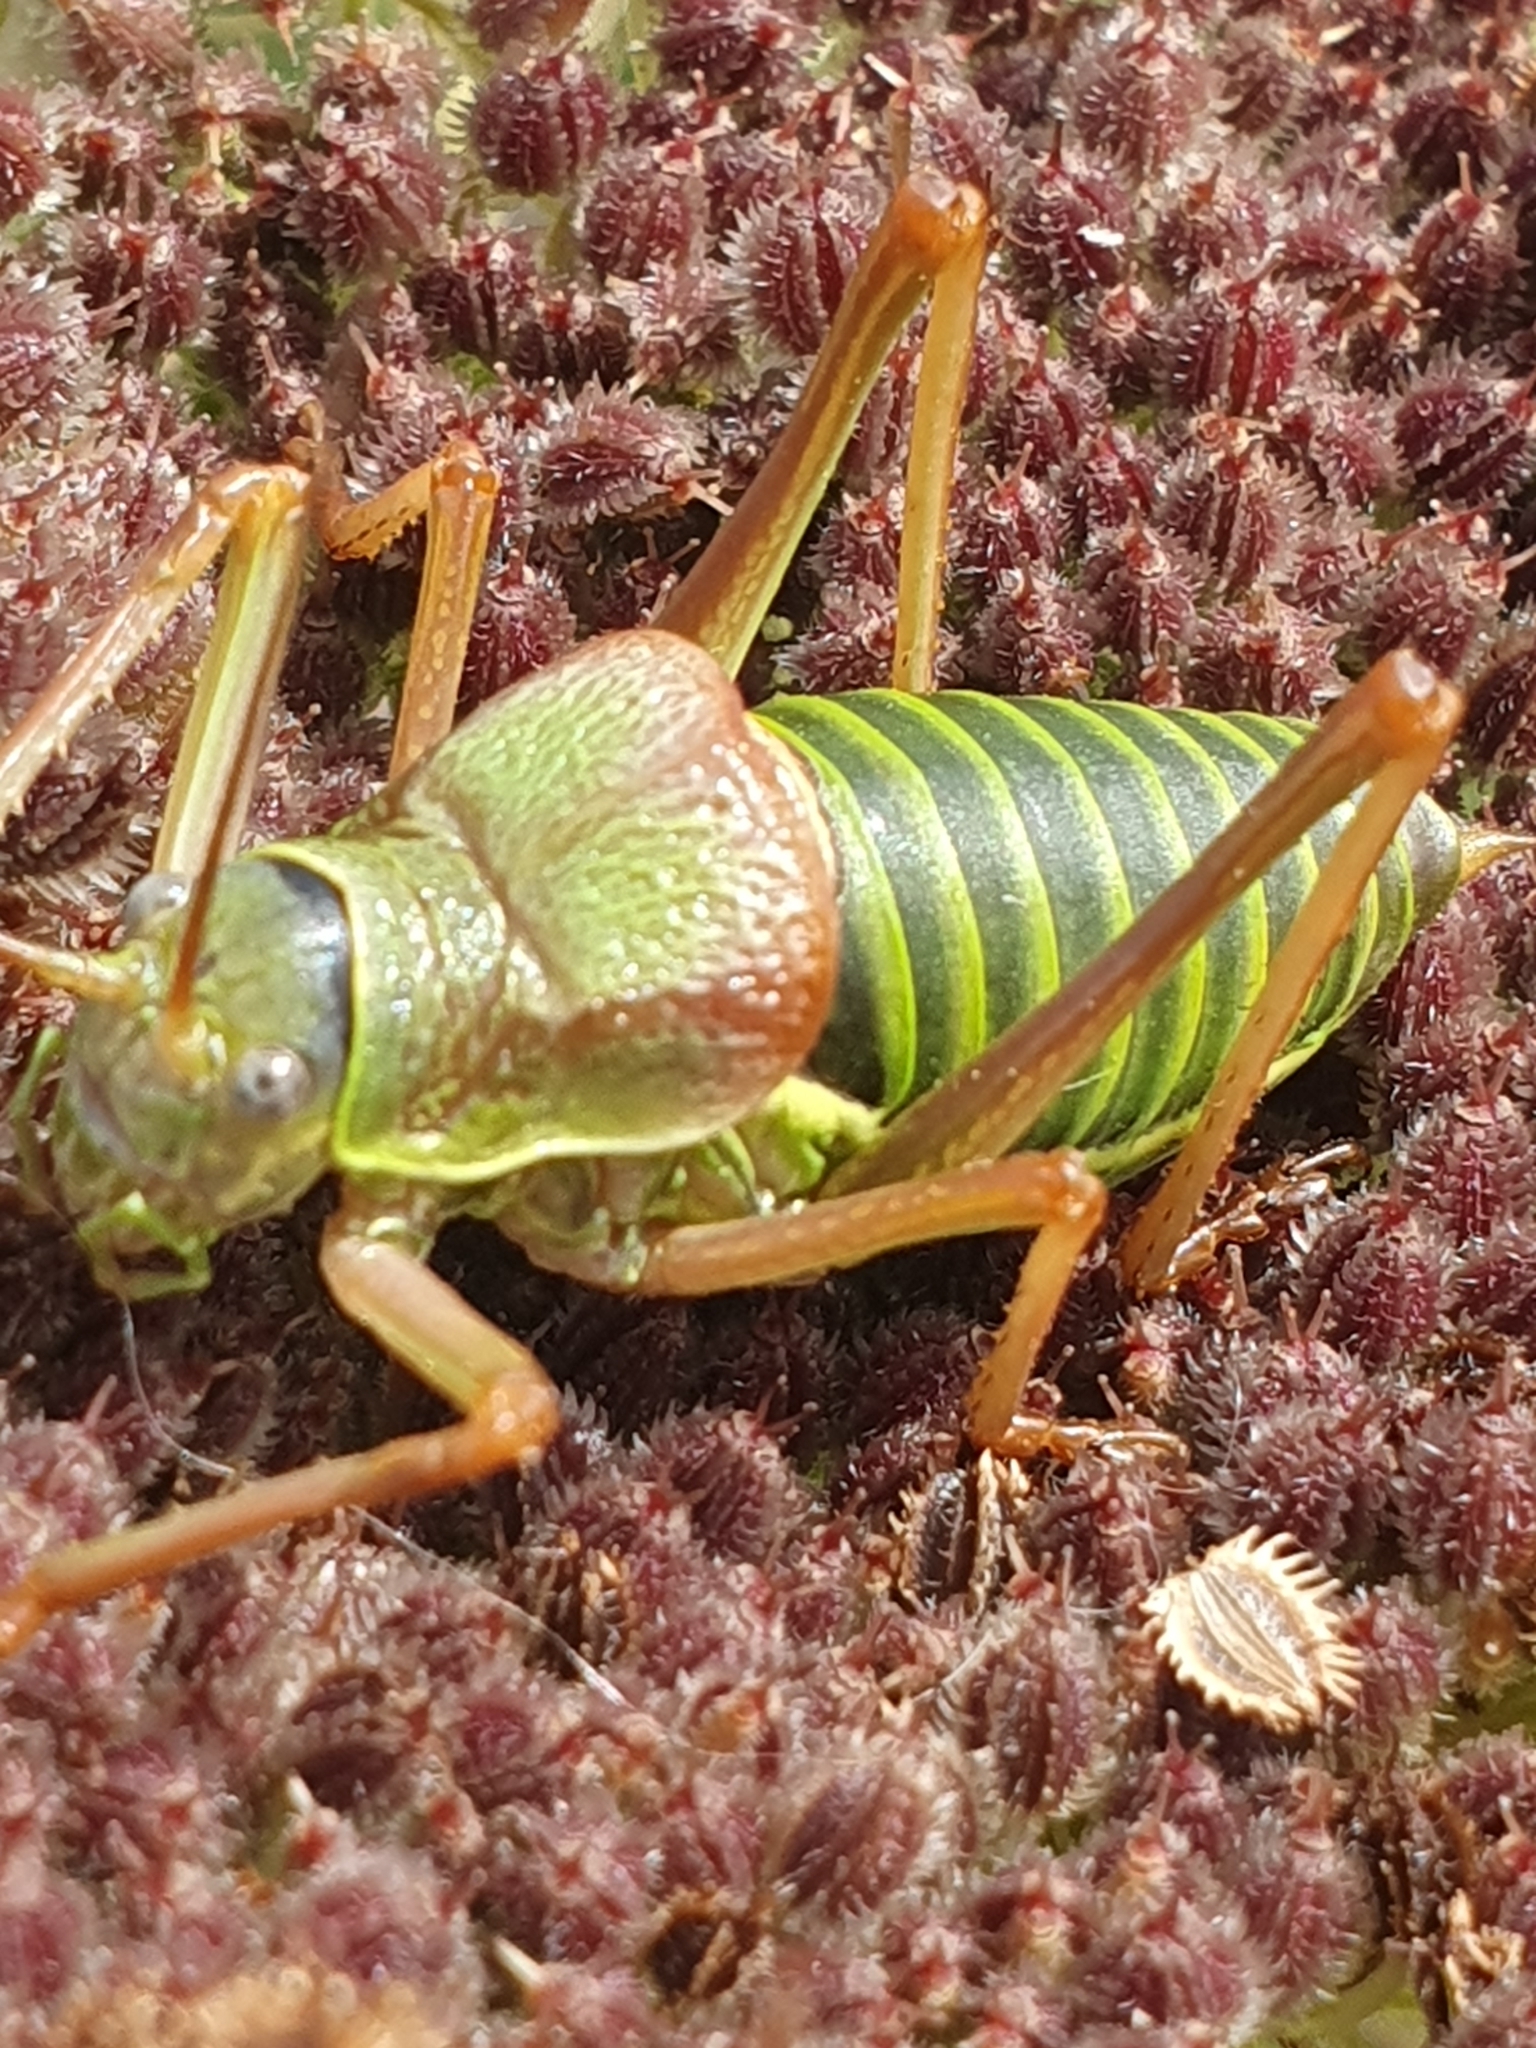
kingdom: Animalia
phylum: Arthropoda
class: Insecta
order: Orthoptera
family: Tettigoniidae
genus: Ephippiger
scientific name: Ephippiger diurnus
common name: Western saddle bush-cricket
